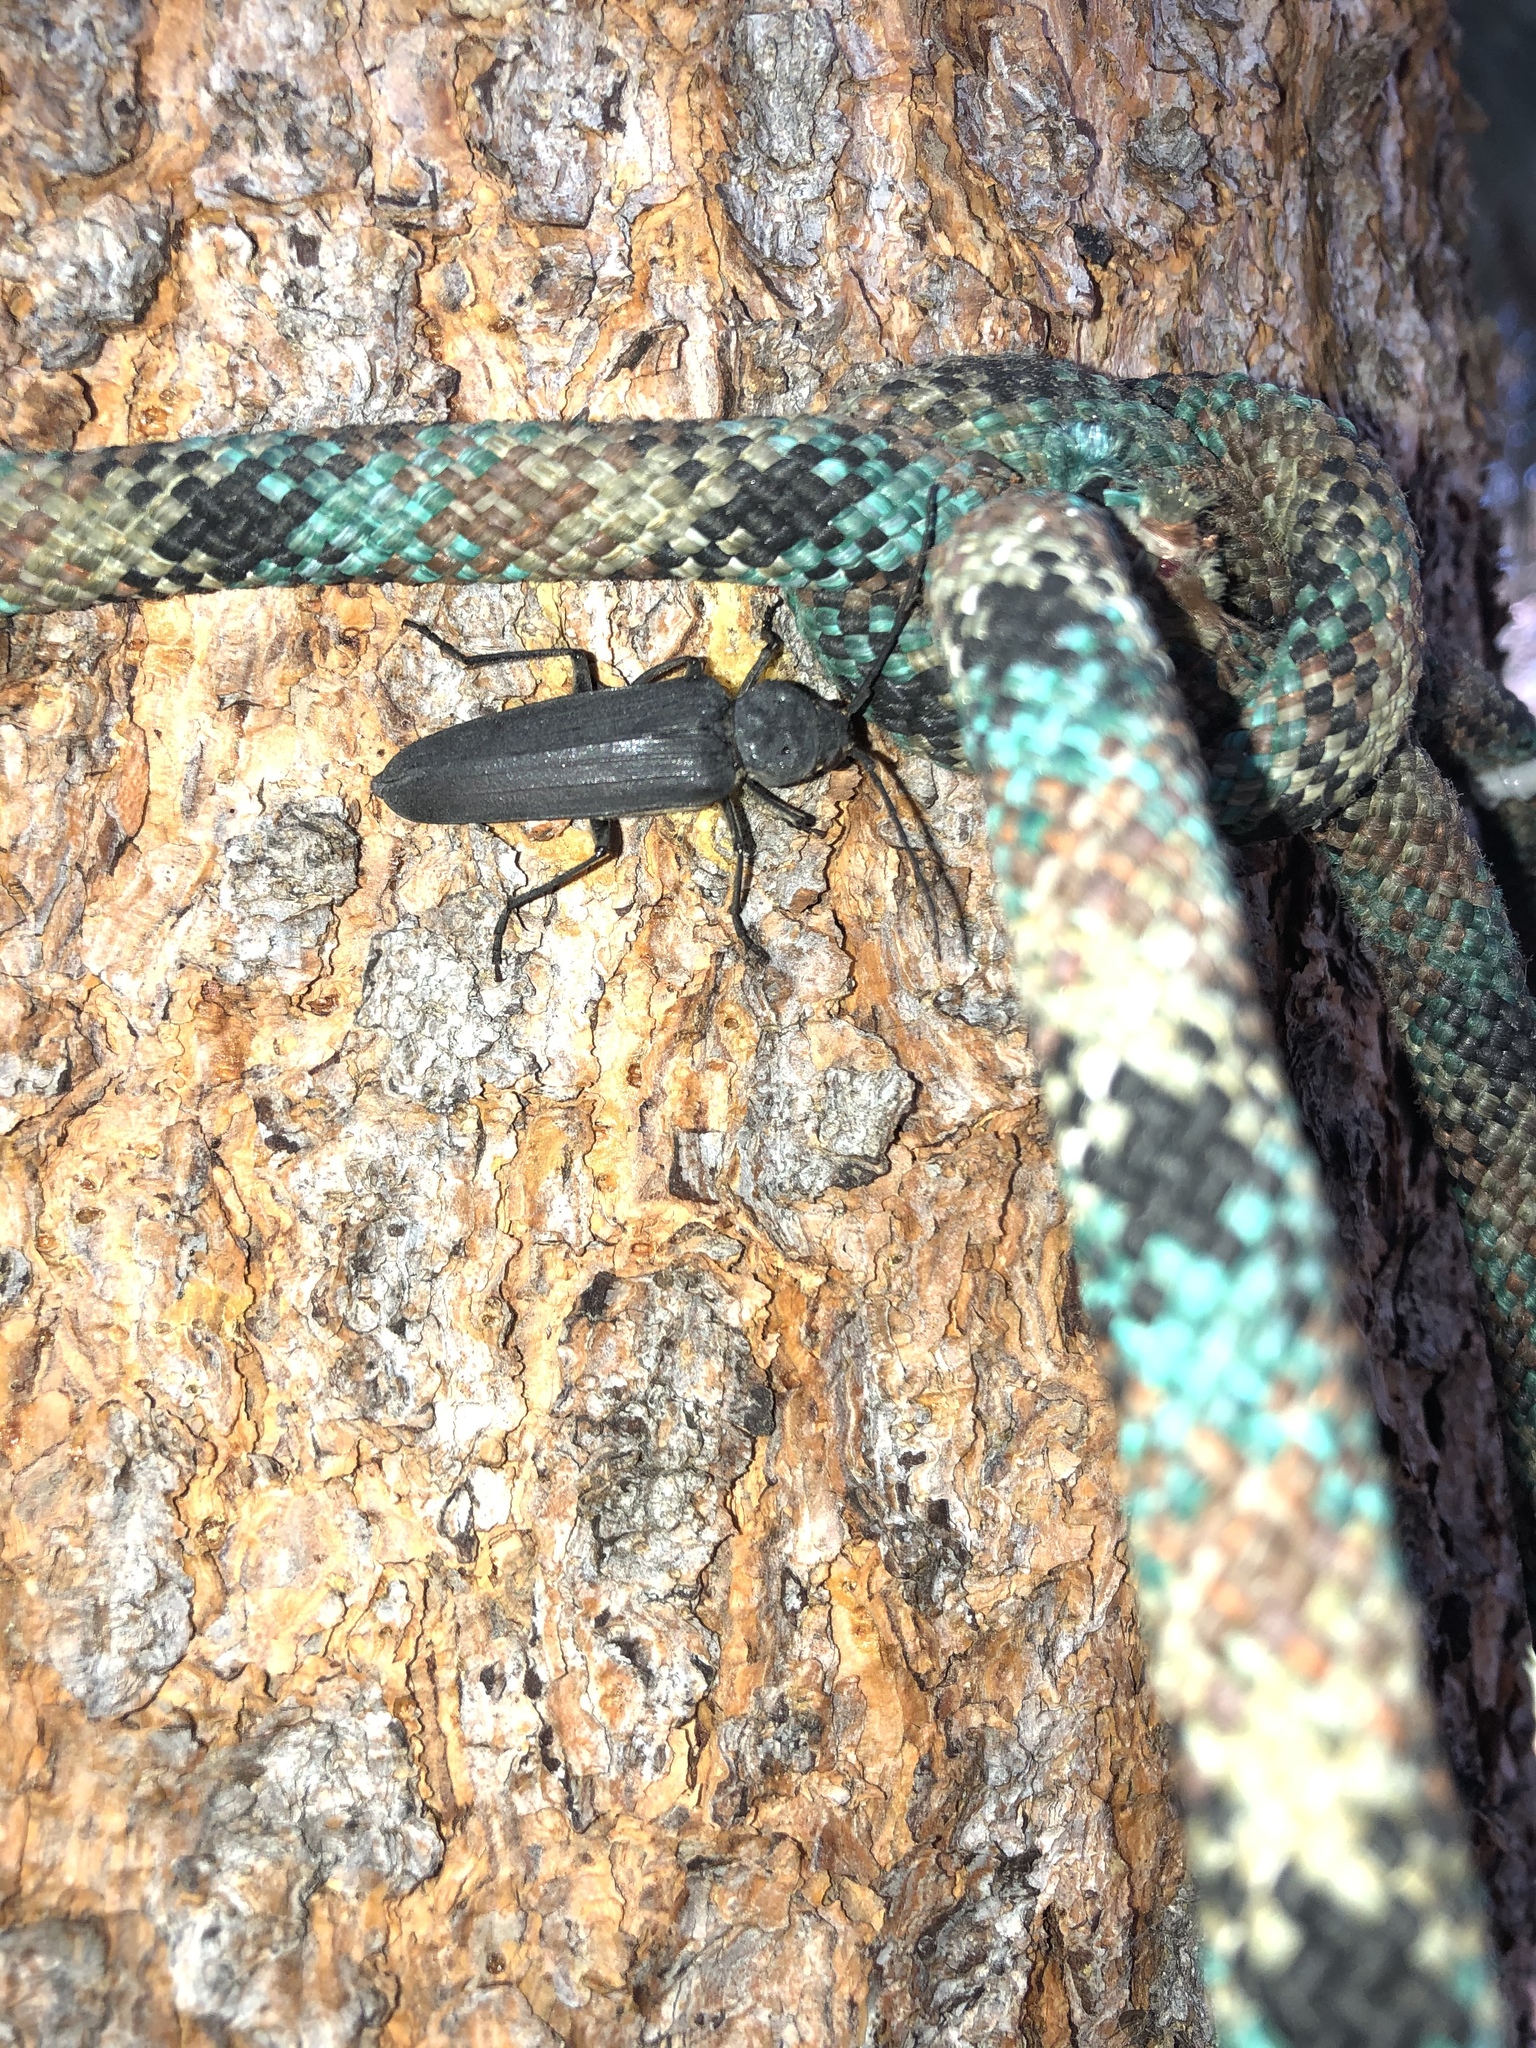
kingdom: Animalia
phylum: Arthropoda
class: Insecta
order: Coleoptera
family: Cerambycidae
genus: Arhopalus
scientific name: Arhopalus asperatus
